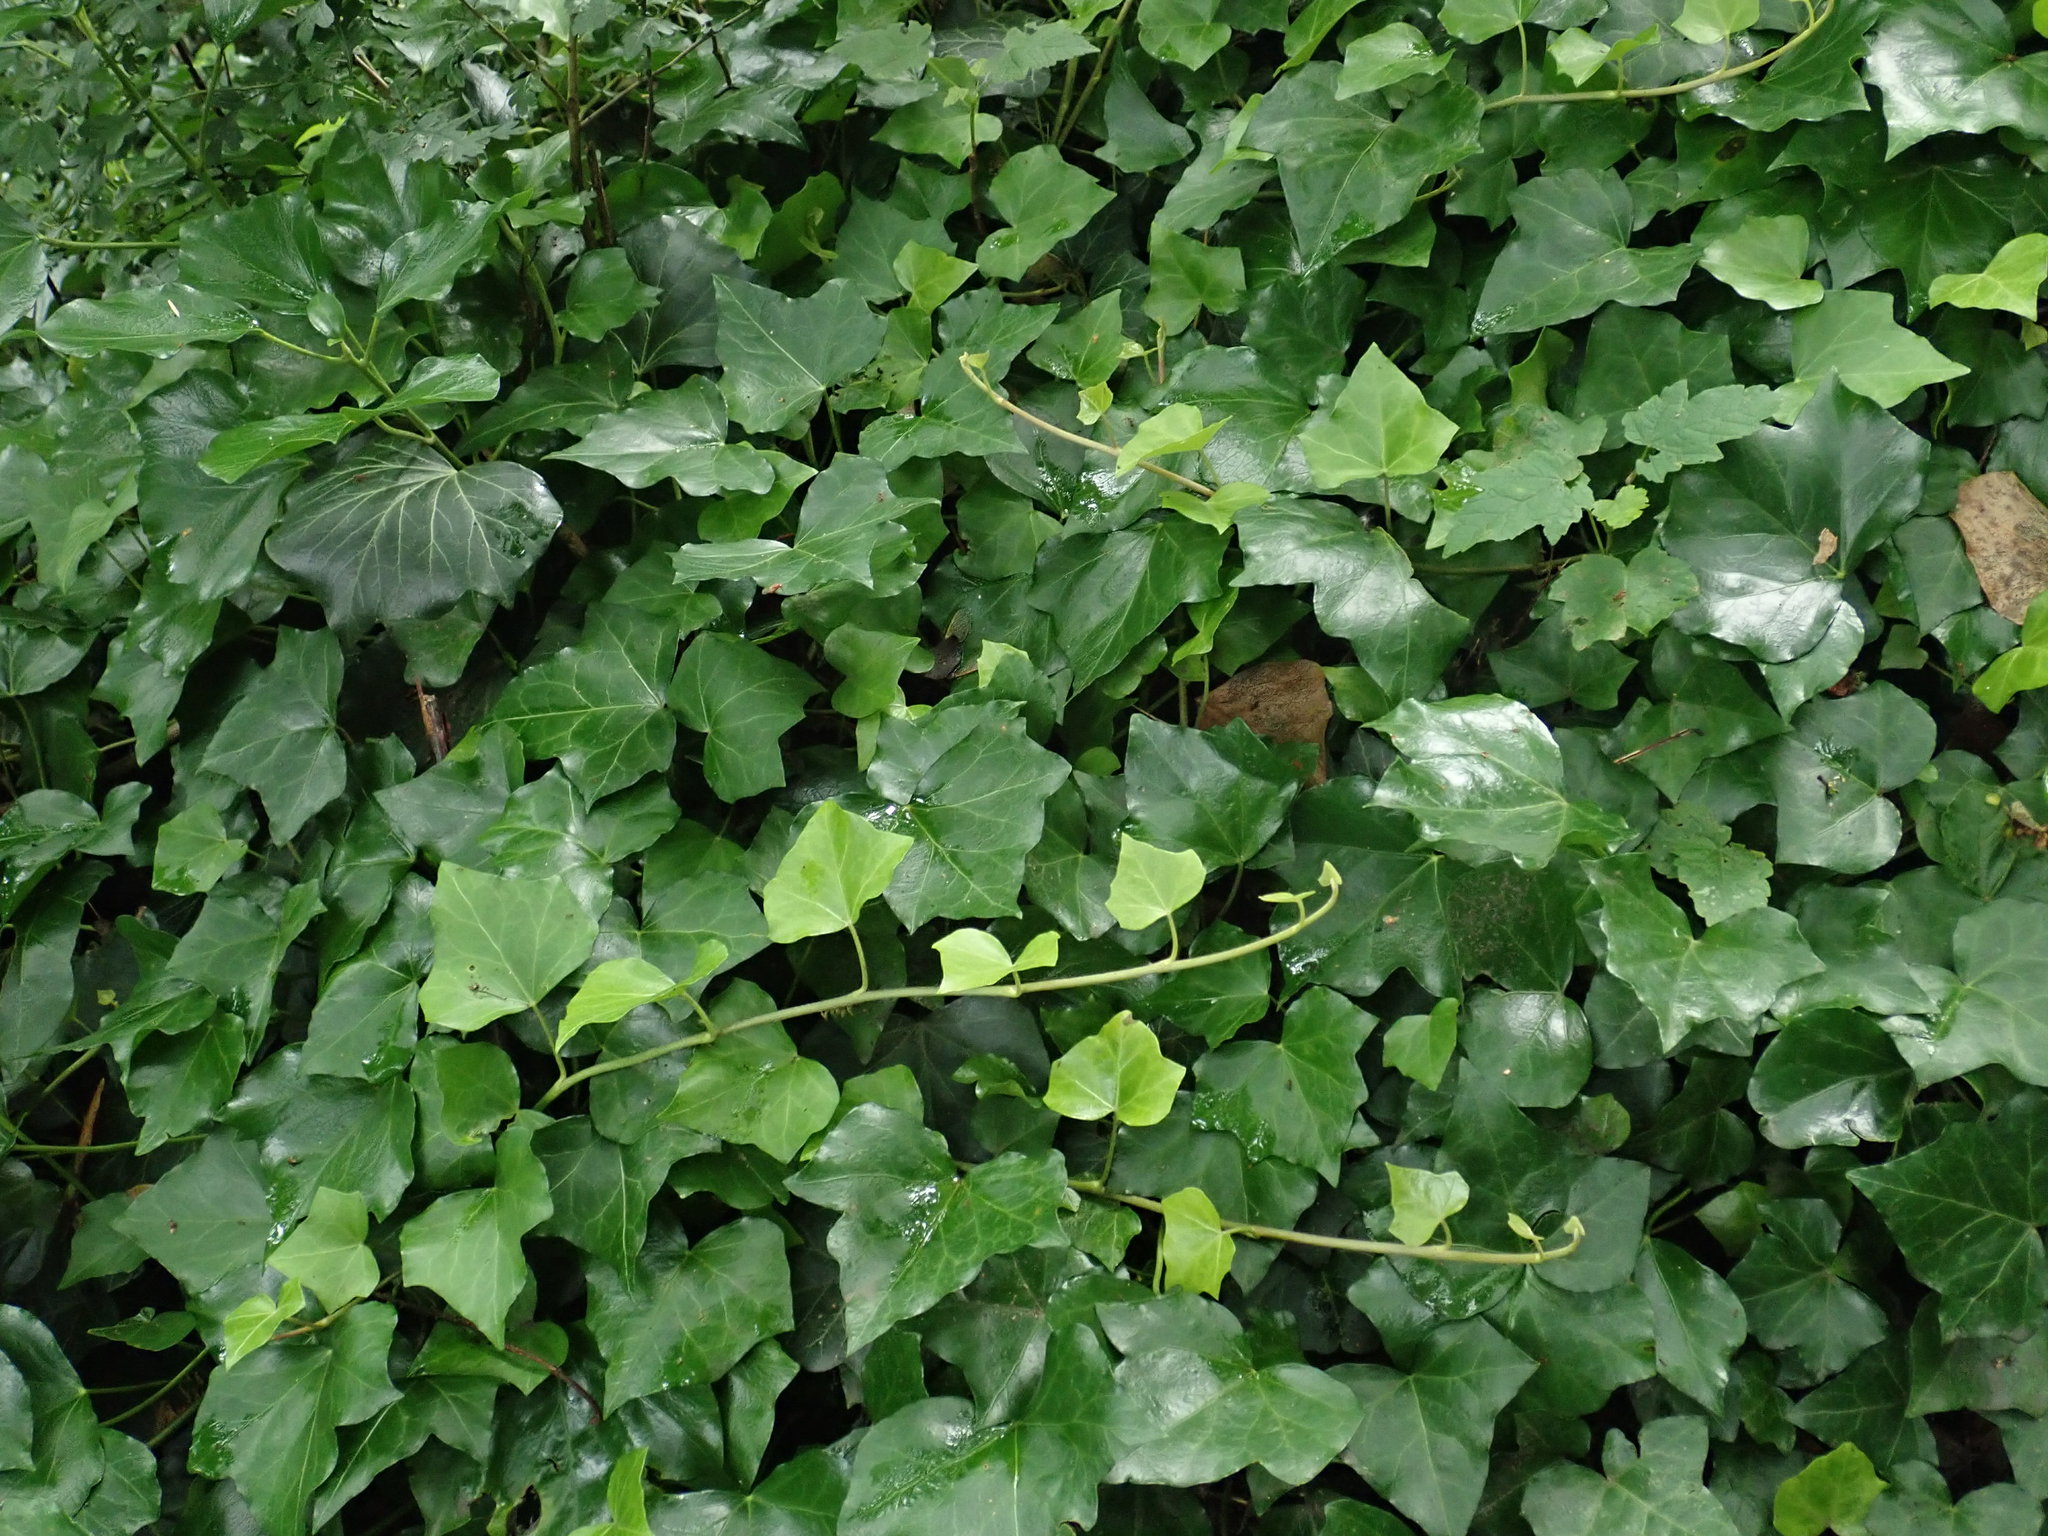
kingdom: Plantae
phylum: Tracheophyta
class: Magnoliopsida
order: Apiales
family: Araliaceae
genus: Hedera
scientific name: Hedera helix
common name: Ivy
